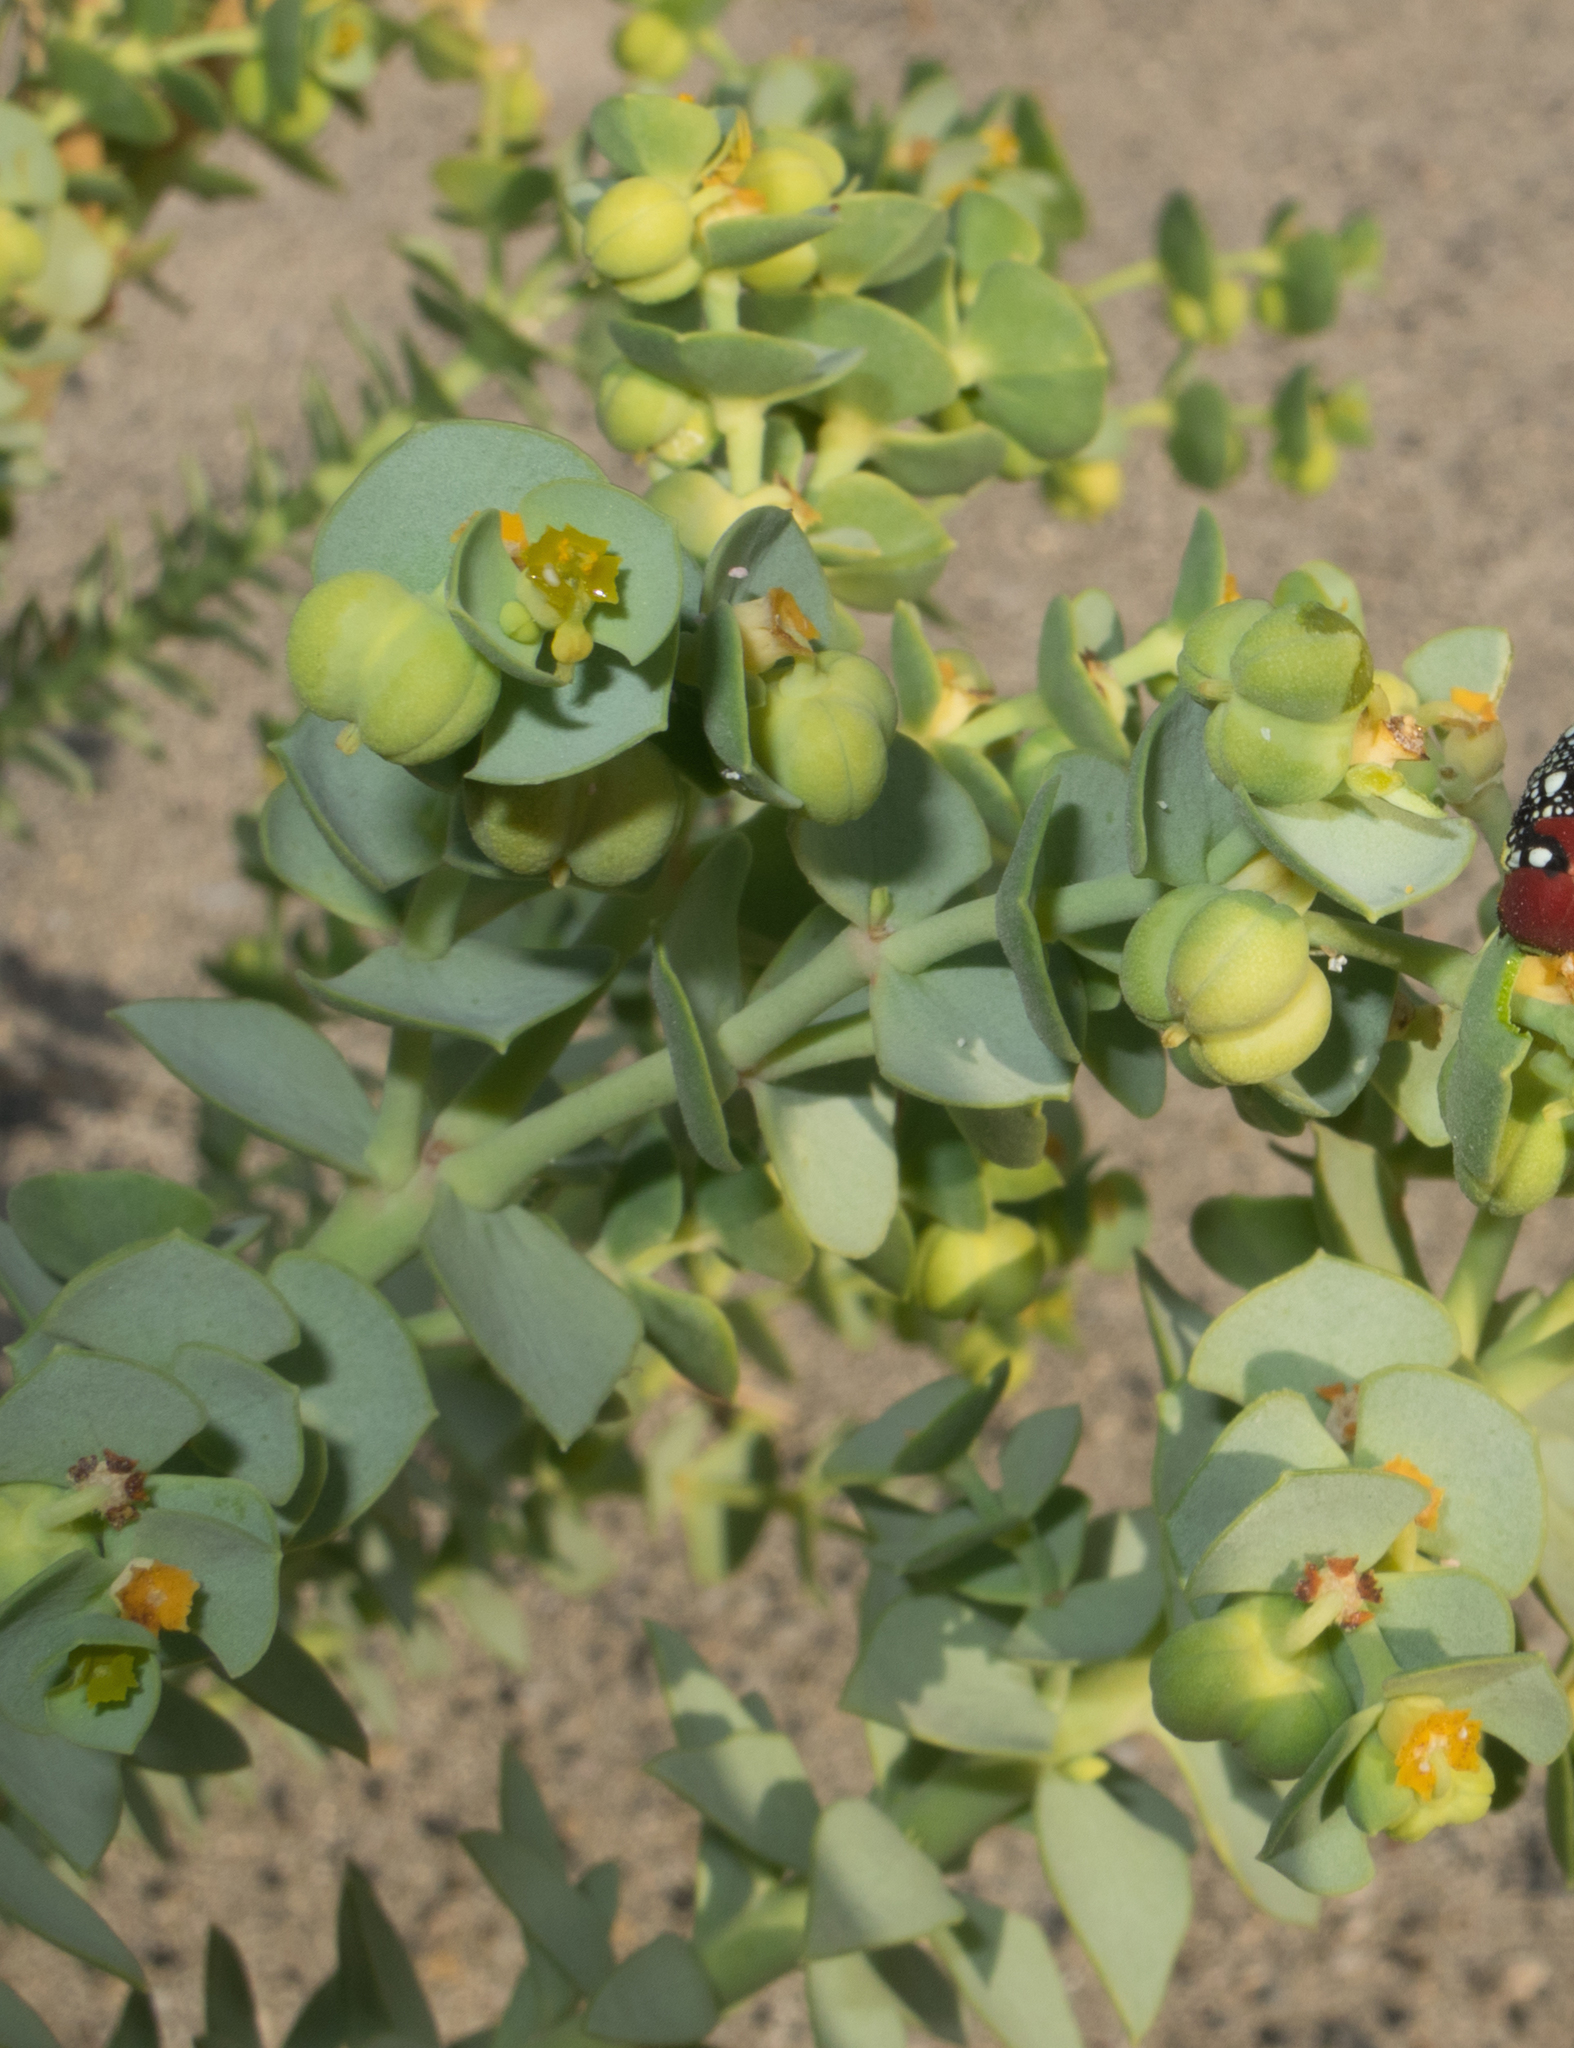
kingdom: Plantae
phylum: Tracheophyta
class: Magnoliopsida
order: Malpighiales
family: Euphorbiaceae
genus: Euphorbia
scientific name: Euphorbia paralias
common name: Sea spurge
